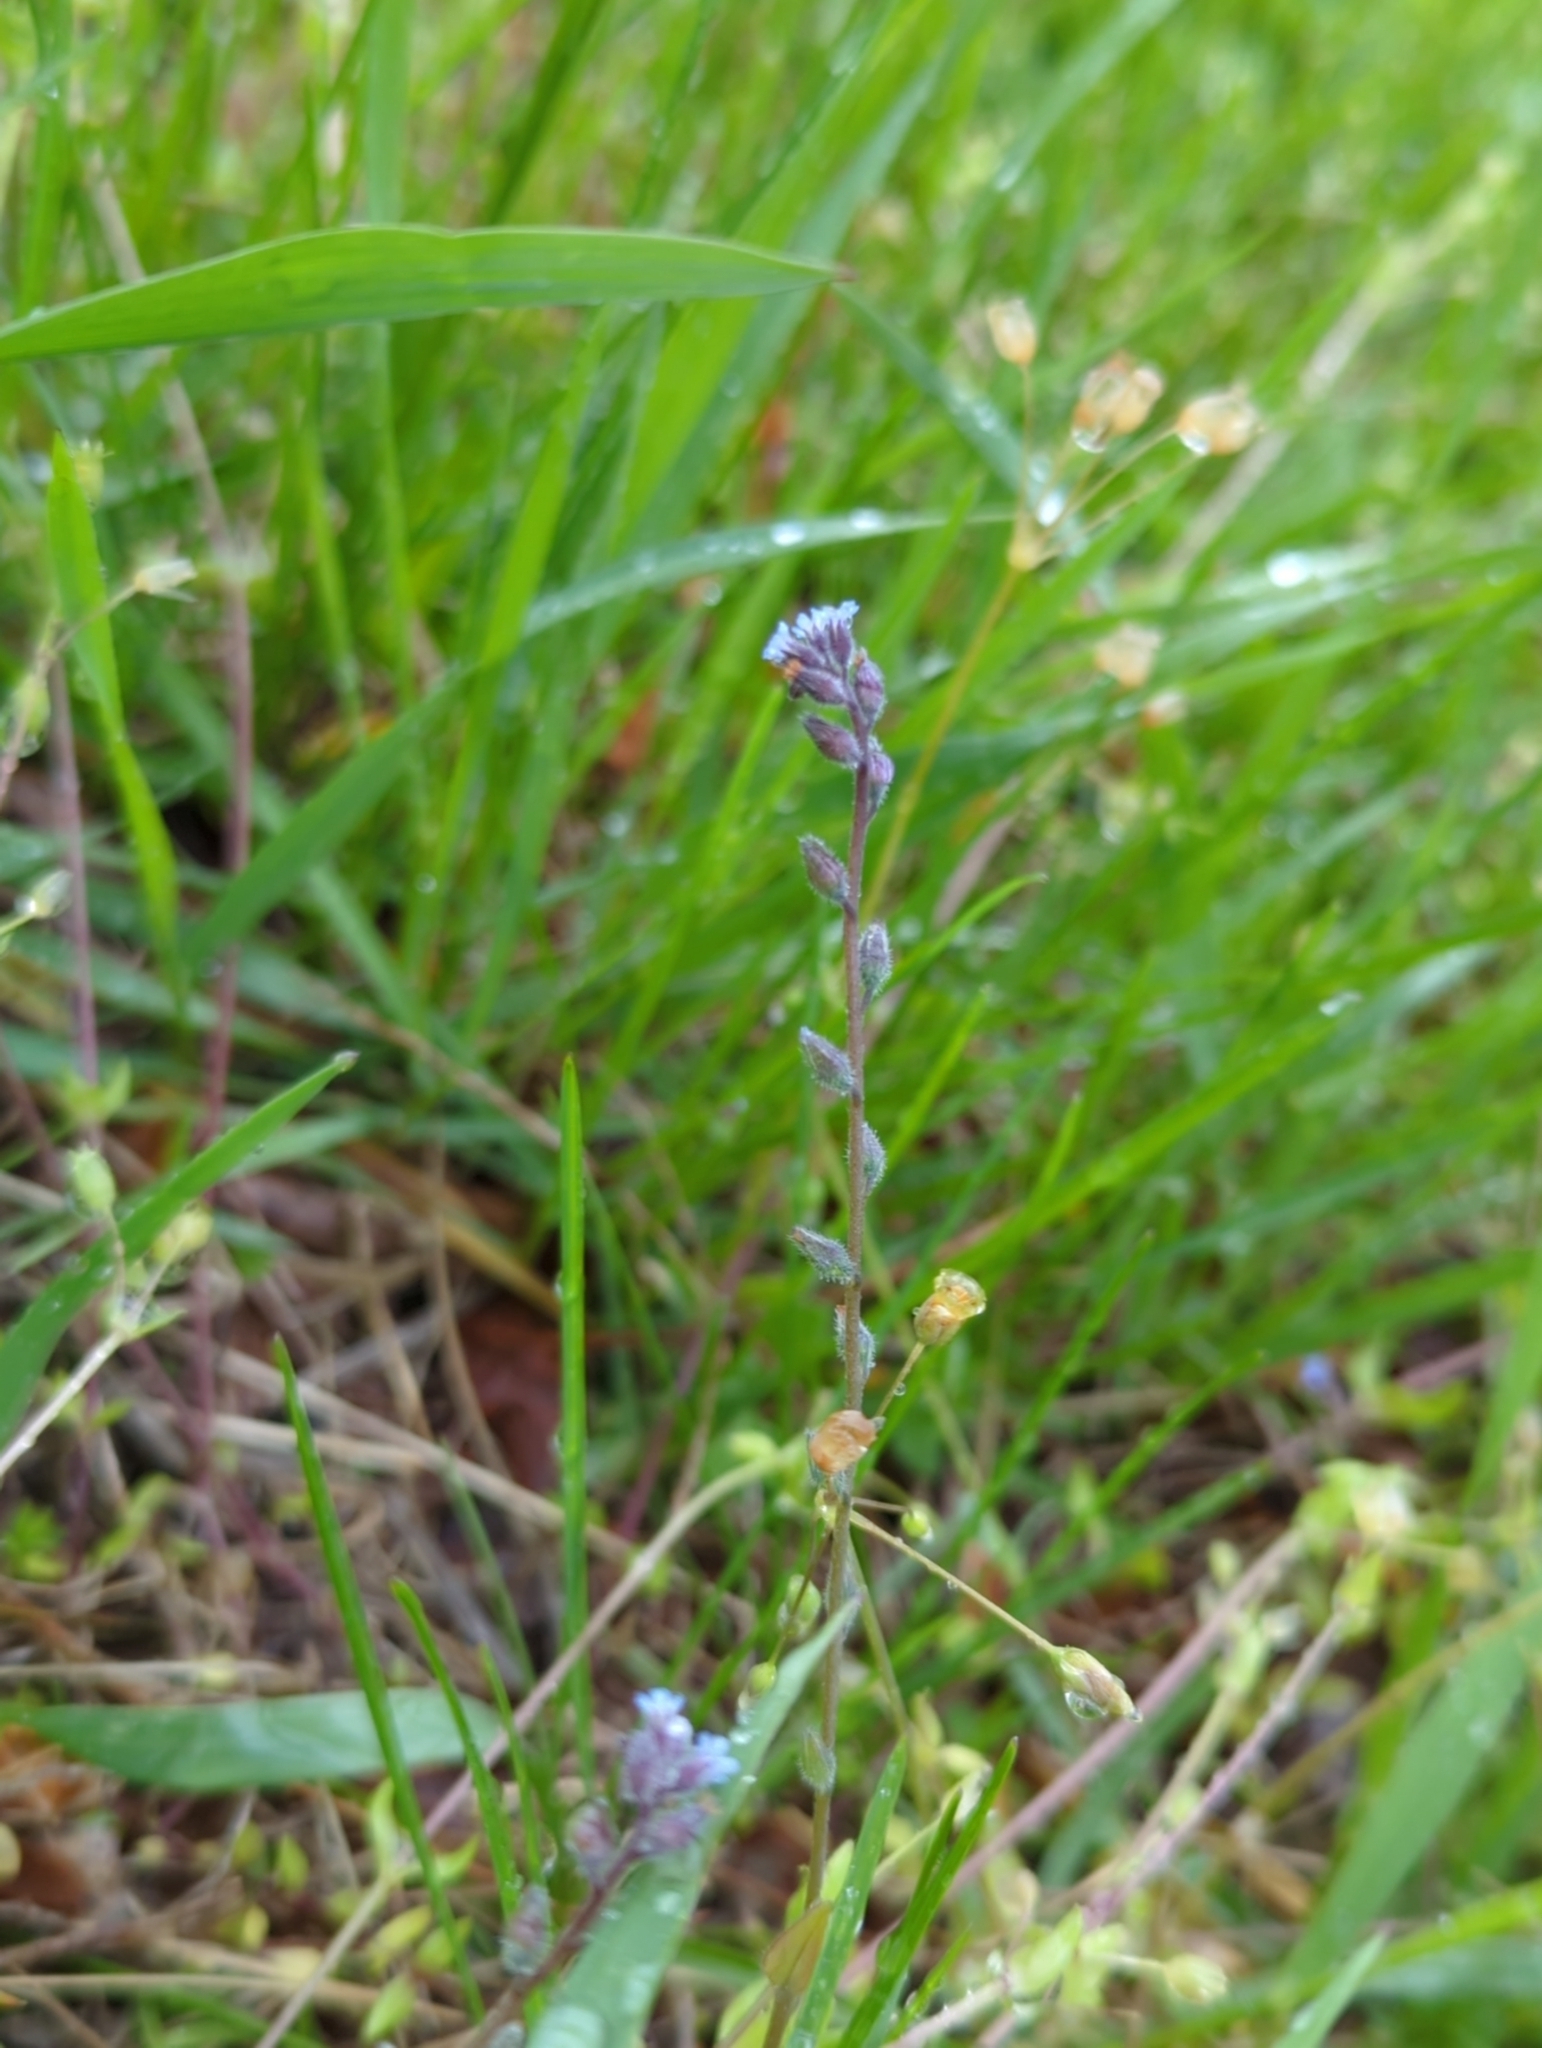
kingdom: Plantae
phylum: Tracheophyta
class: Magnoliopsida
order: Boraginales
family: Boraginaceae
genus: Myosotis
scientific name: Myosotis stricta
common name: Strict forget-me-not
